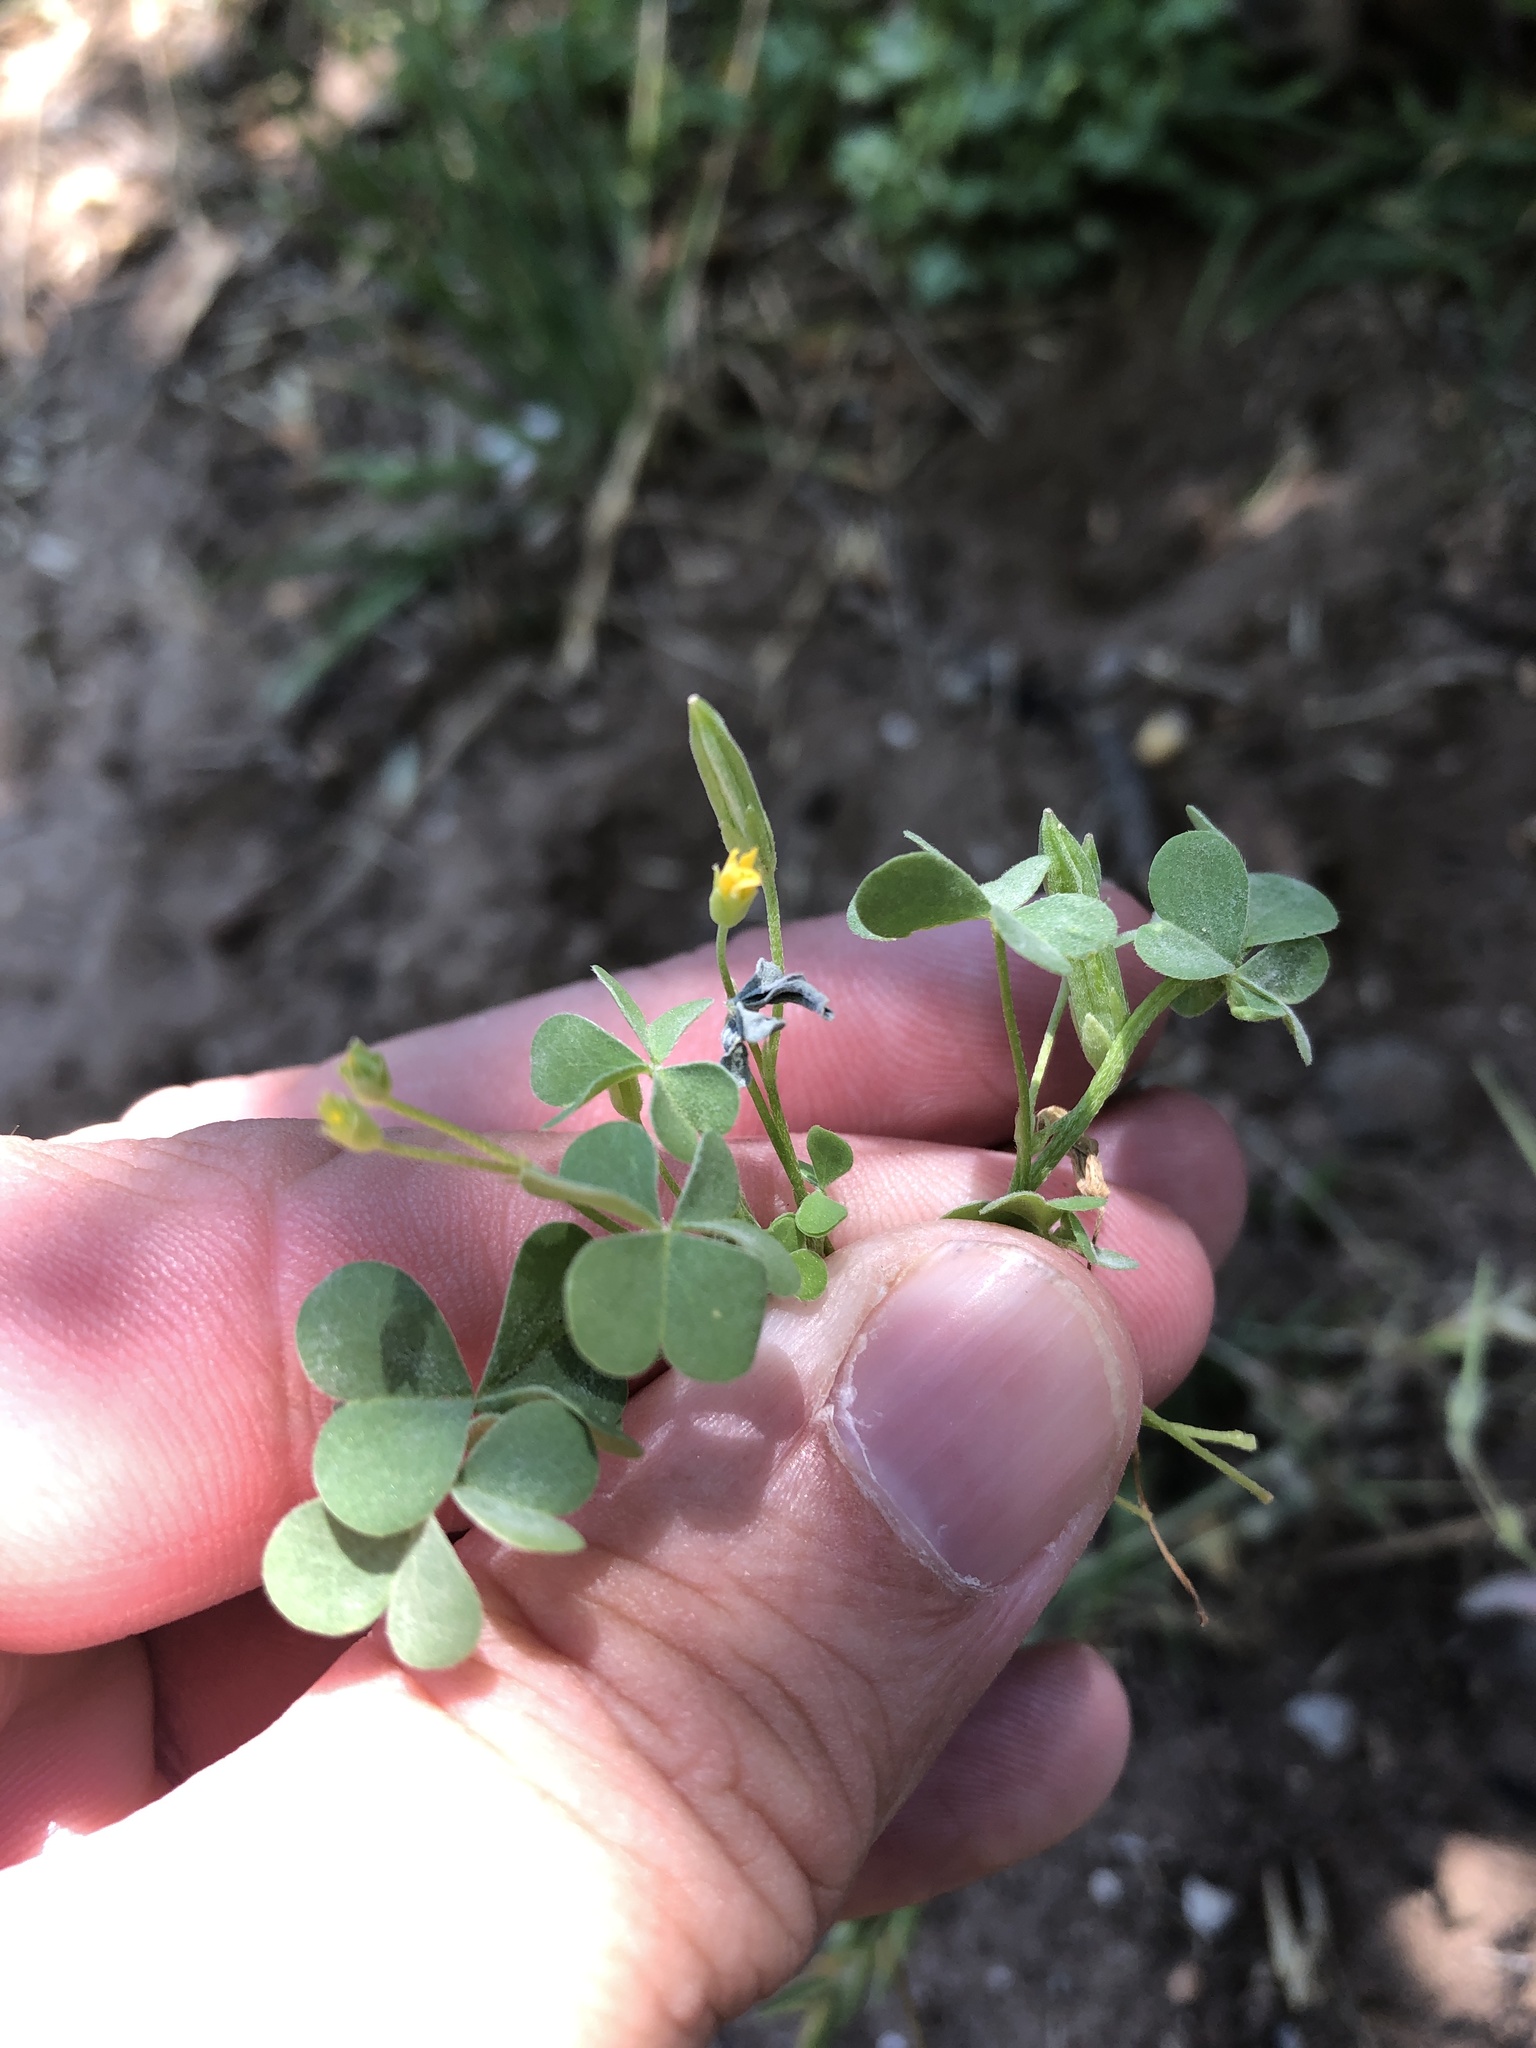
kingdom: Plantae
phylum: Tracheophyta
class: Magnoliopsida
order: Oxalidales
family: Oxalidaceae
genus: Oxalis
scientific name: Oxalis dillenii
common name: Sussex yellow-sorrel
